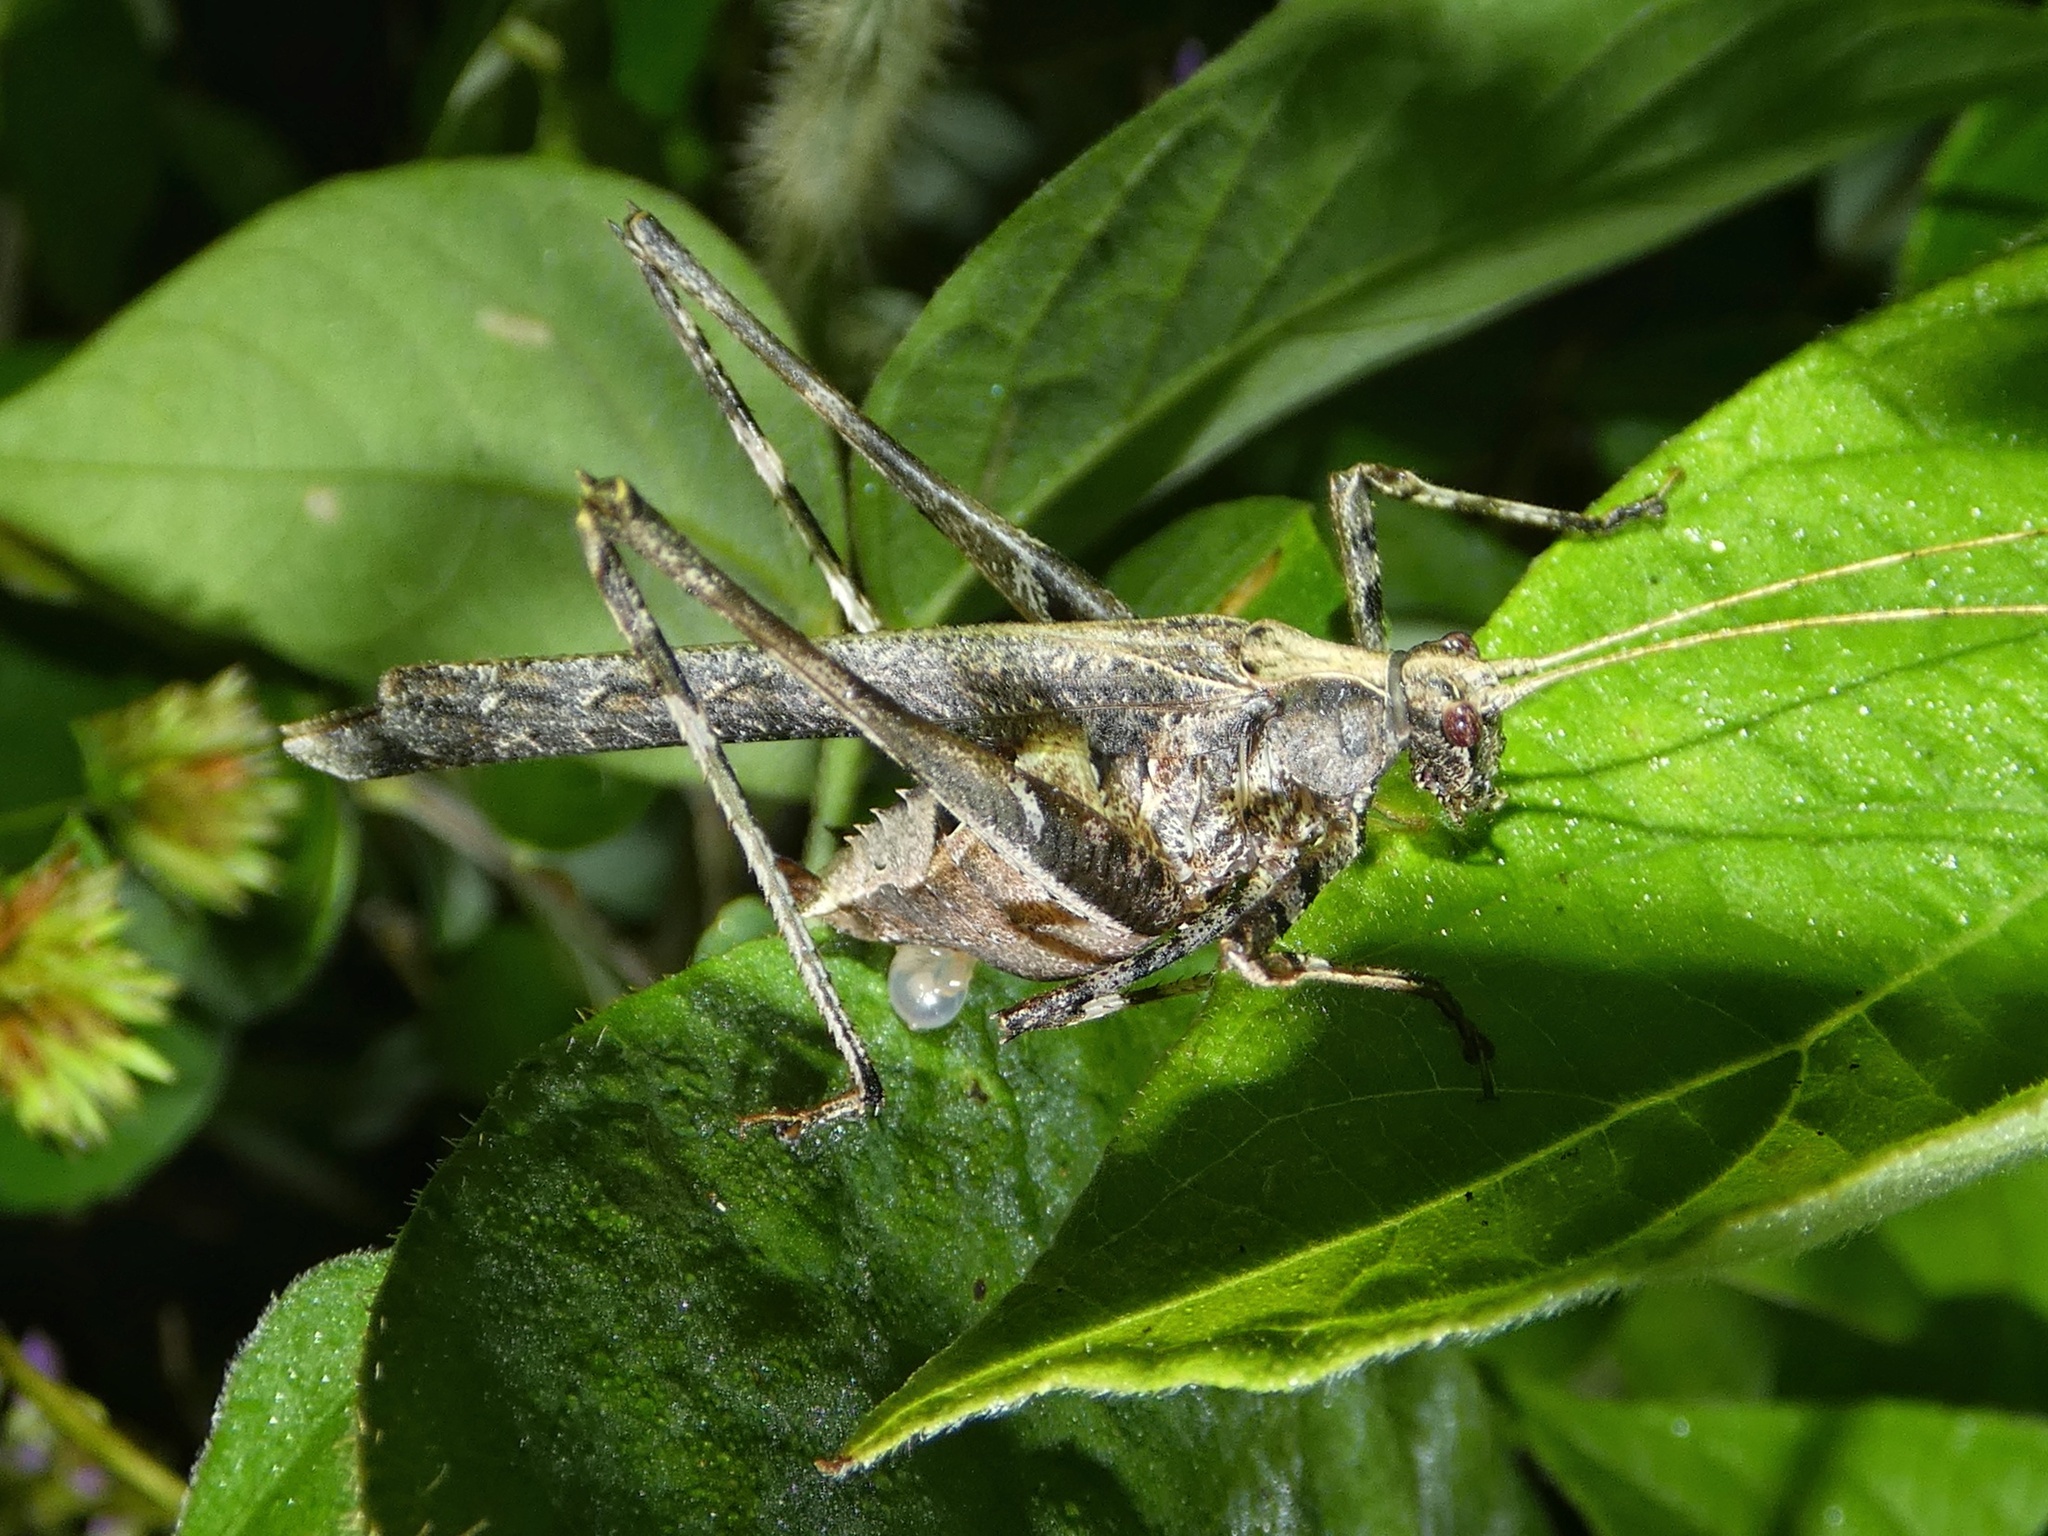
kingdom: Animalia
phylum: Arthropoda
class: Insecta
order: Orthoptera
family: Tettigoniidae
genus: Insara
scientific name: Insara bolivari
